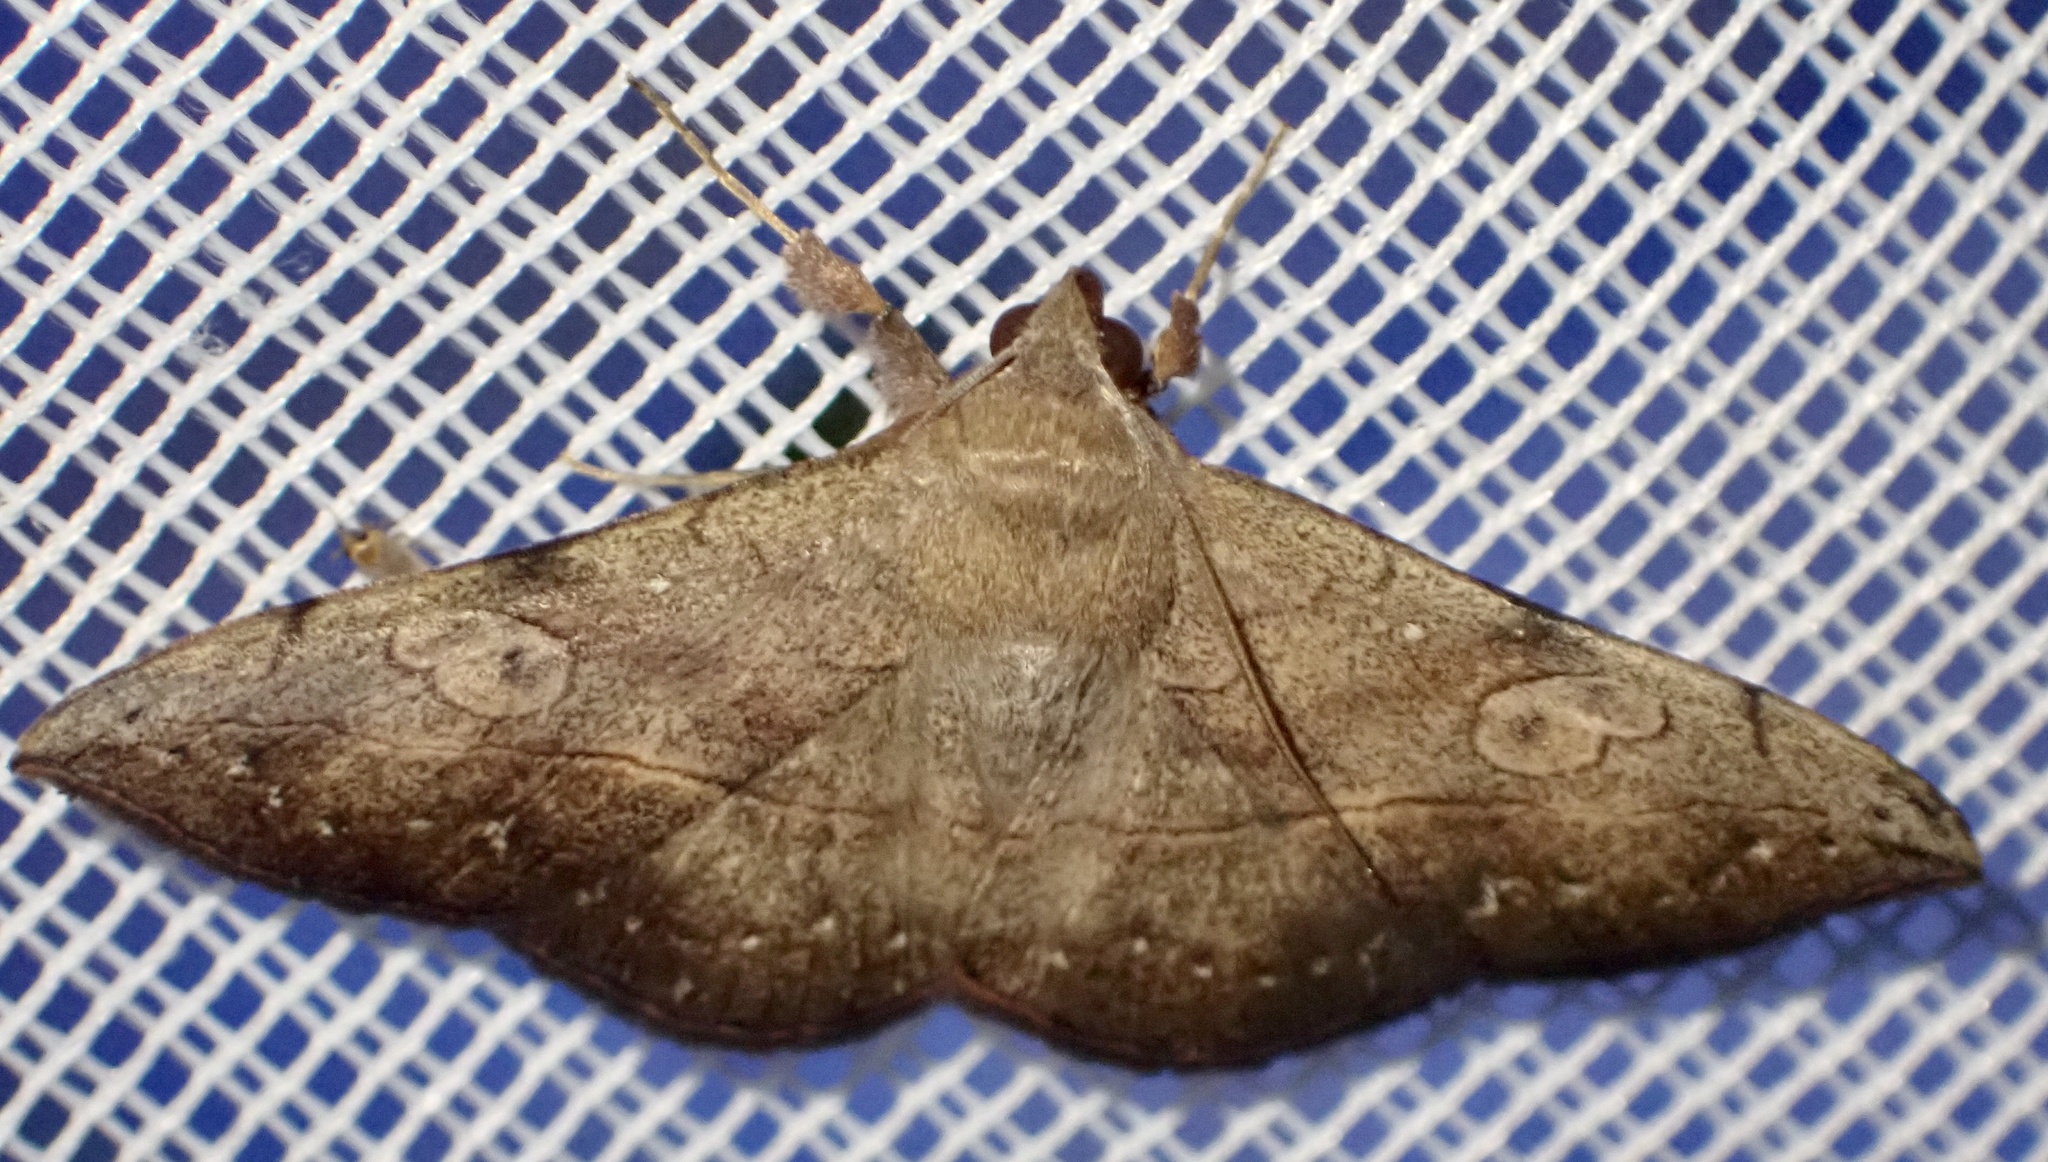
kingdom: Animalia
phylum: Arthropoda
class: Insecta
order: Lepidoptera
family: Erebidae
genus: Anticarsia
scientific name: Anticarsia irrorata
